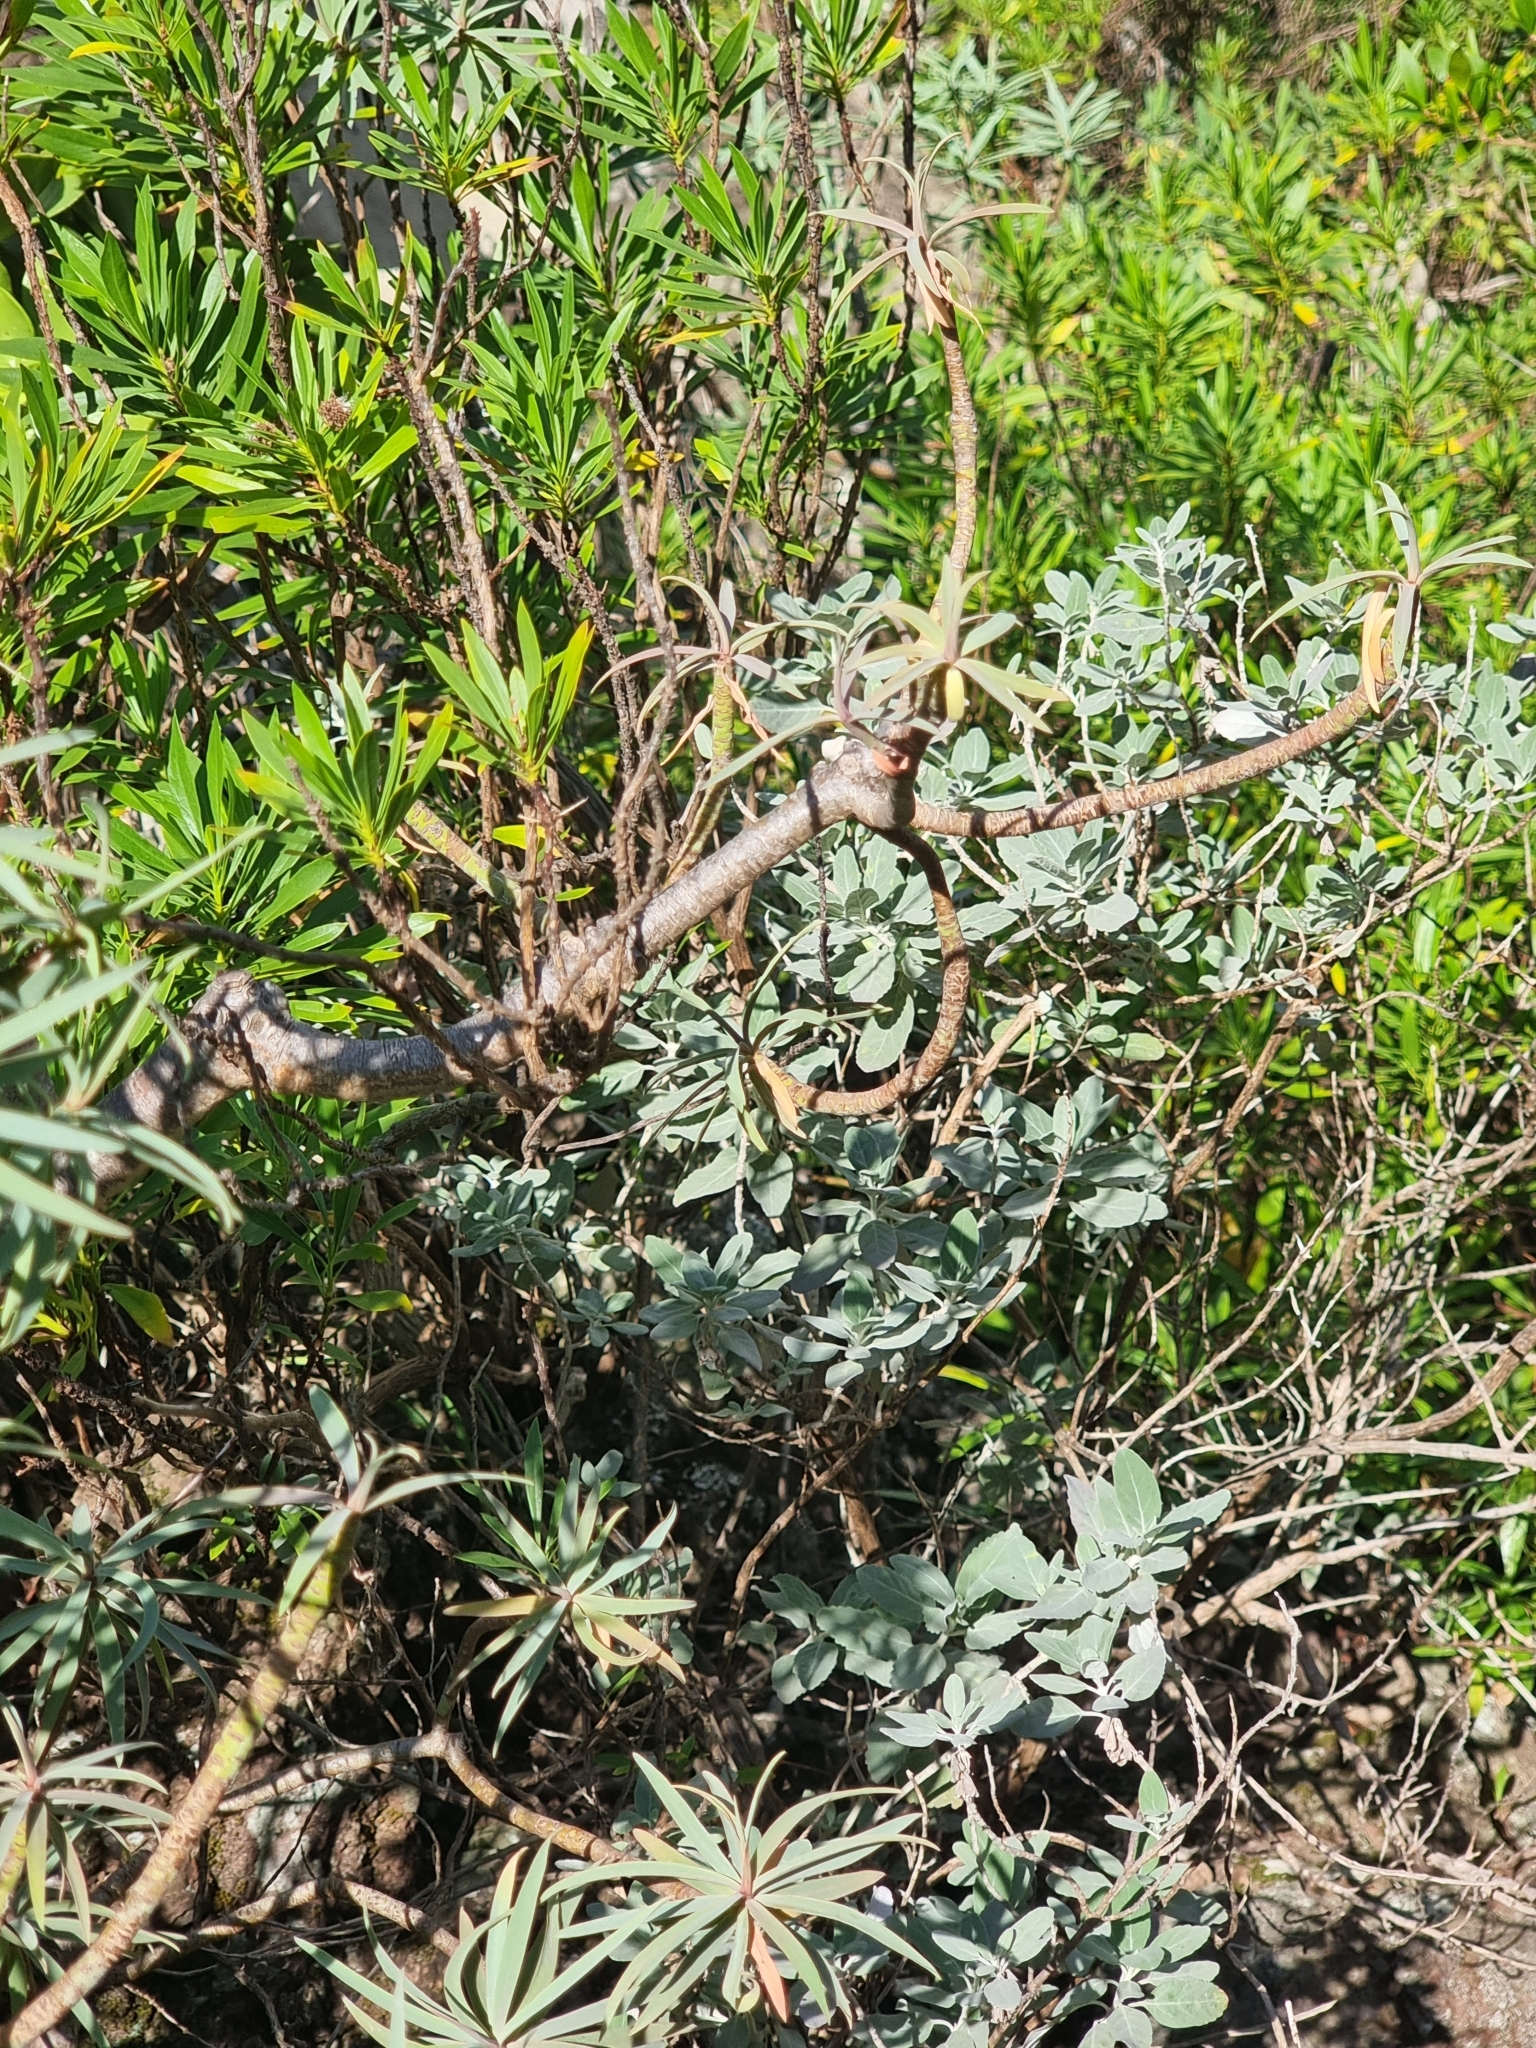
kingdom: Plantae
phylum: Tracheophyta
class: Magnoliopsida
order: Lamiales
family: Lamiaceae
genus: Teucrium
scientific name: Teucrium heterophyllum
